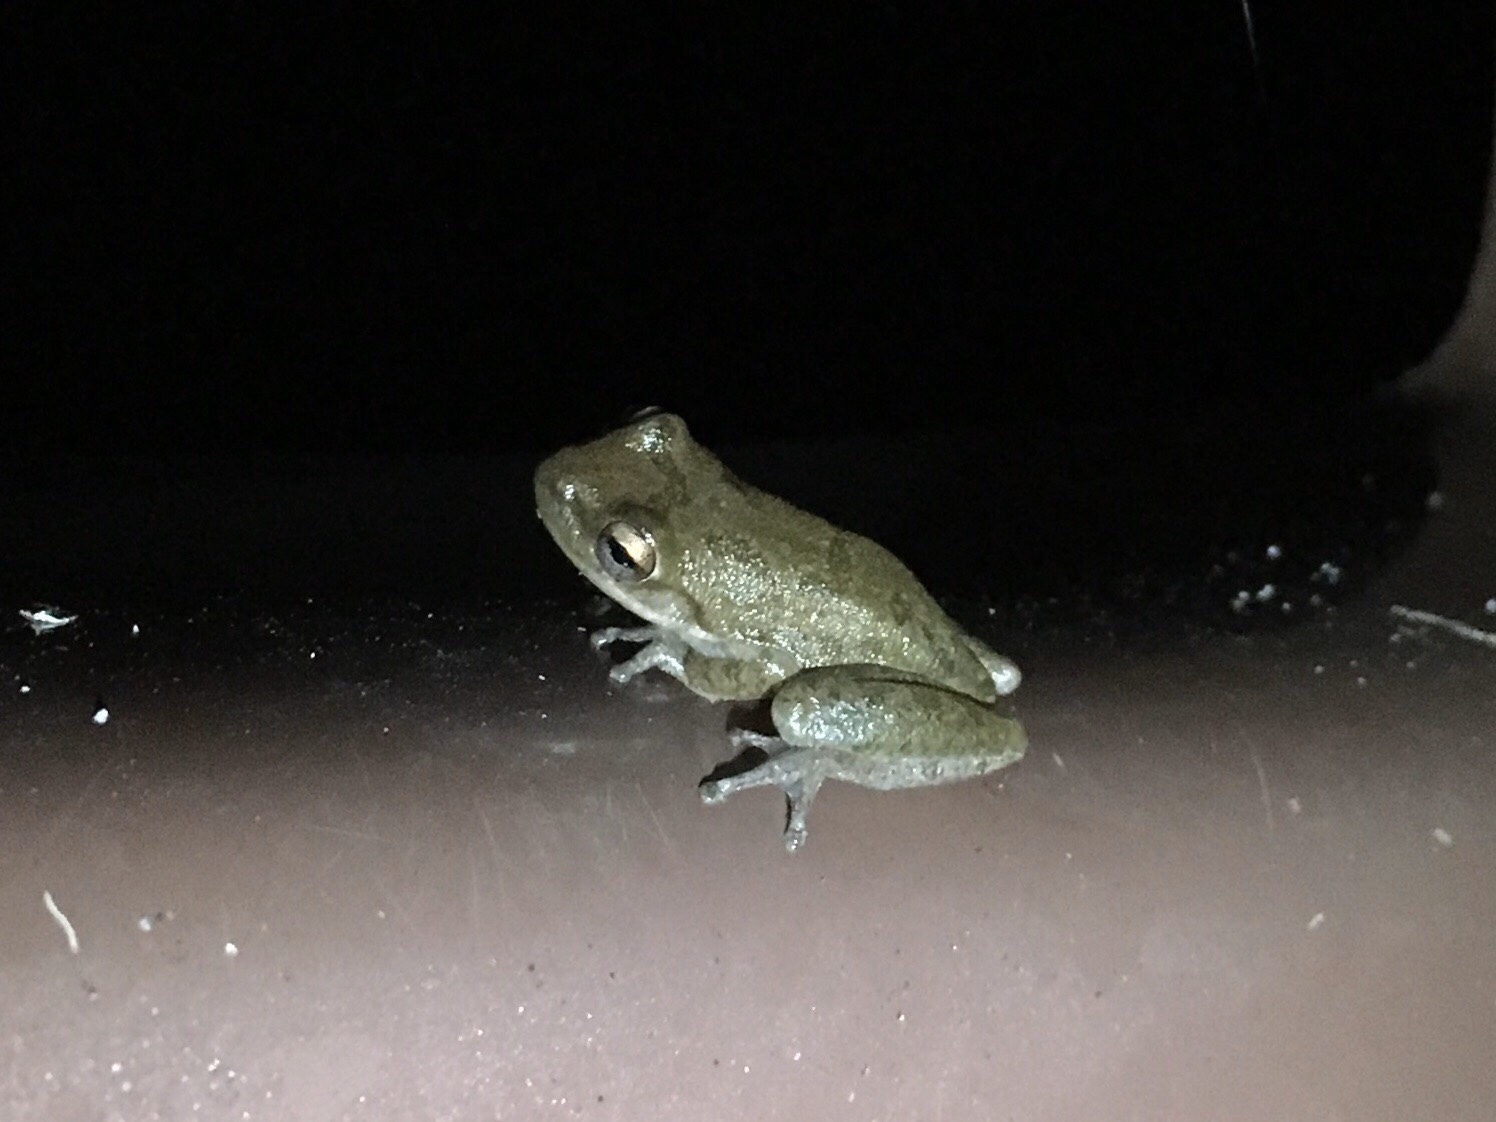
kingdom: Animalia
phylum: Chordata
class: Amphibia
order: Anura
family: Hylidae
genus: Dryophytes
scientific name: Dryophytes squirellus
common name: Squirrel treefrog
